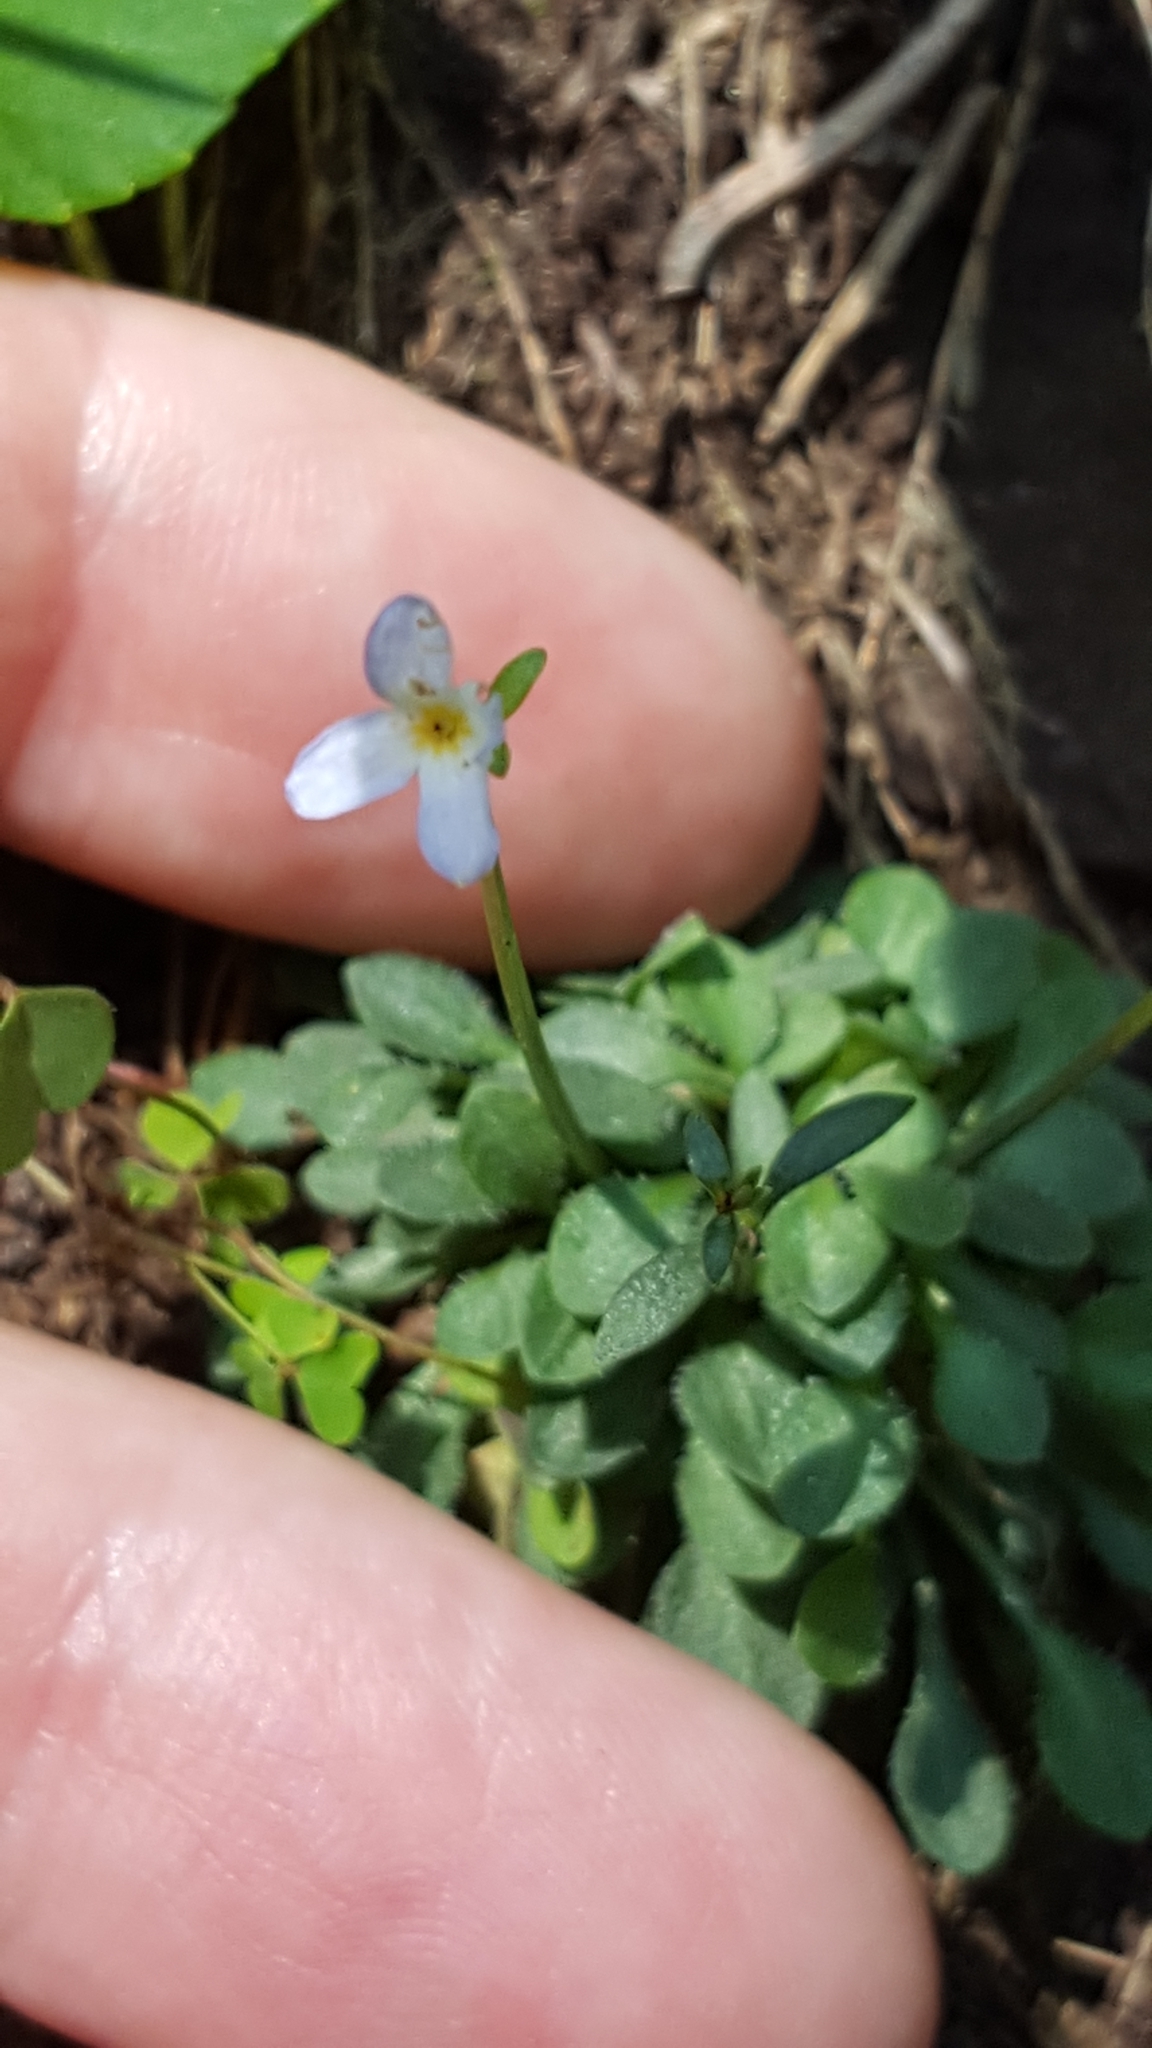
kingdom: Plantae
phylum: Tracheophyta
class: Magnoliopsida
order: Gentianales
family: Rubiaceae
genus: Houstonia
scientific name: Houstonia caerulea
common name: Bluets
